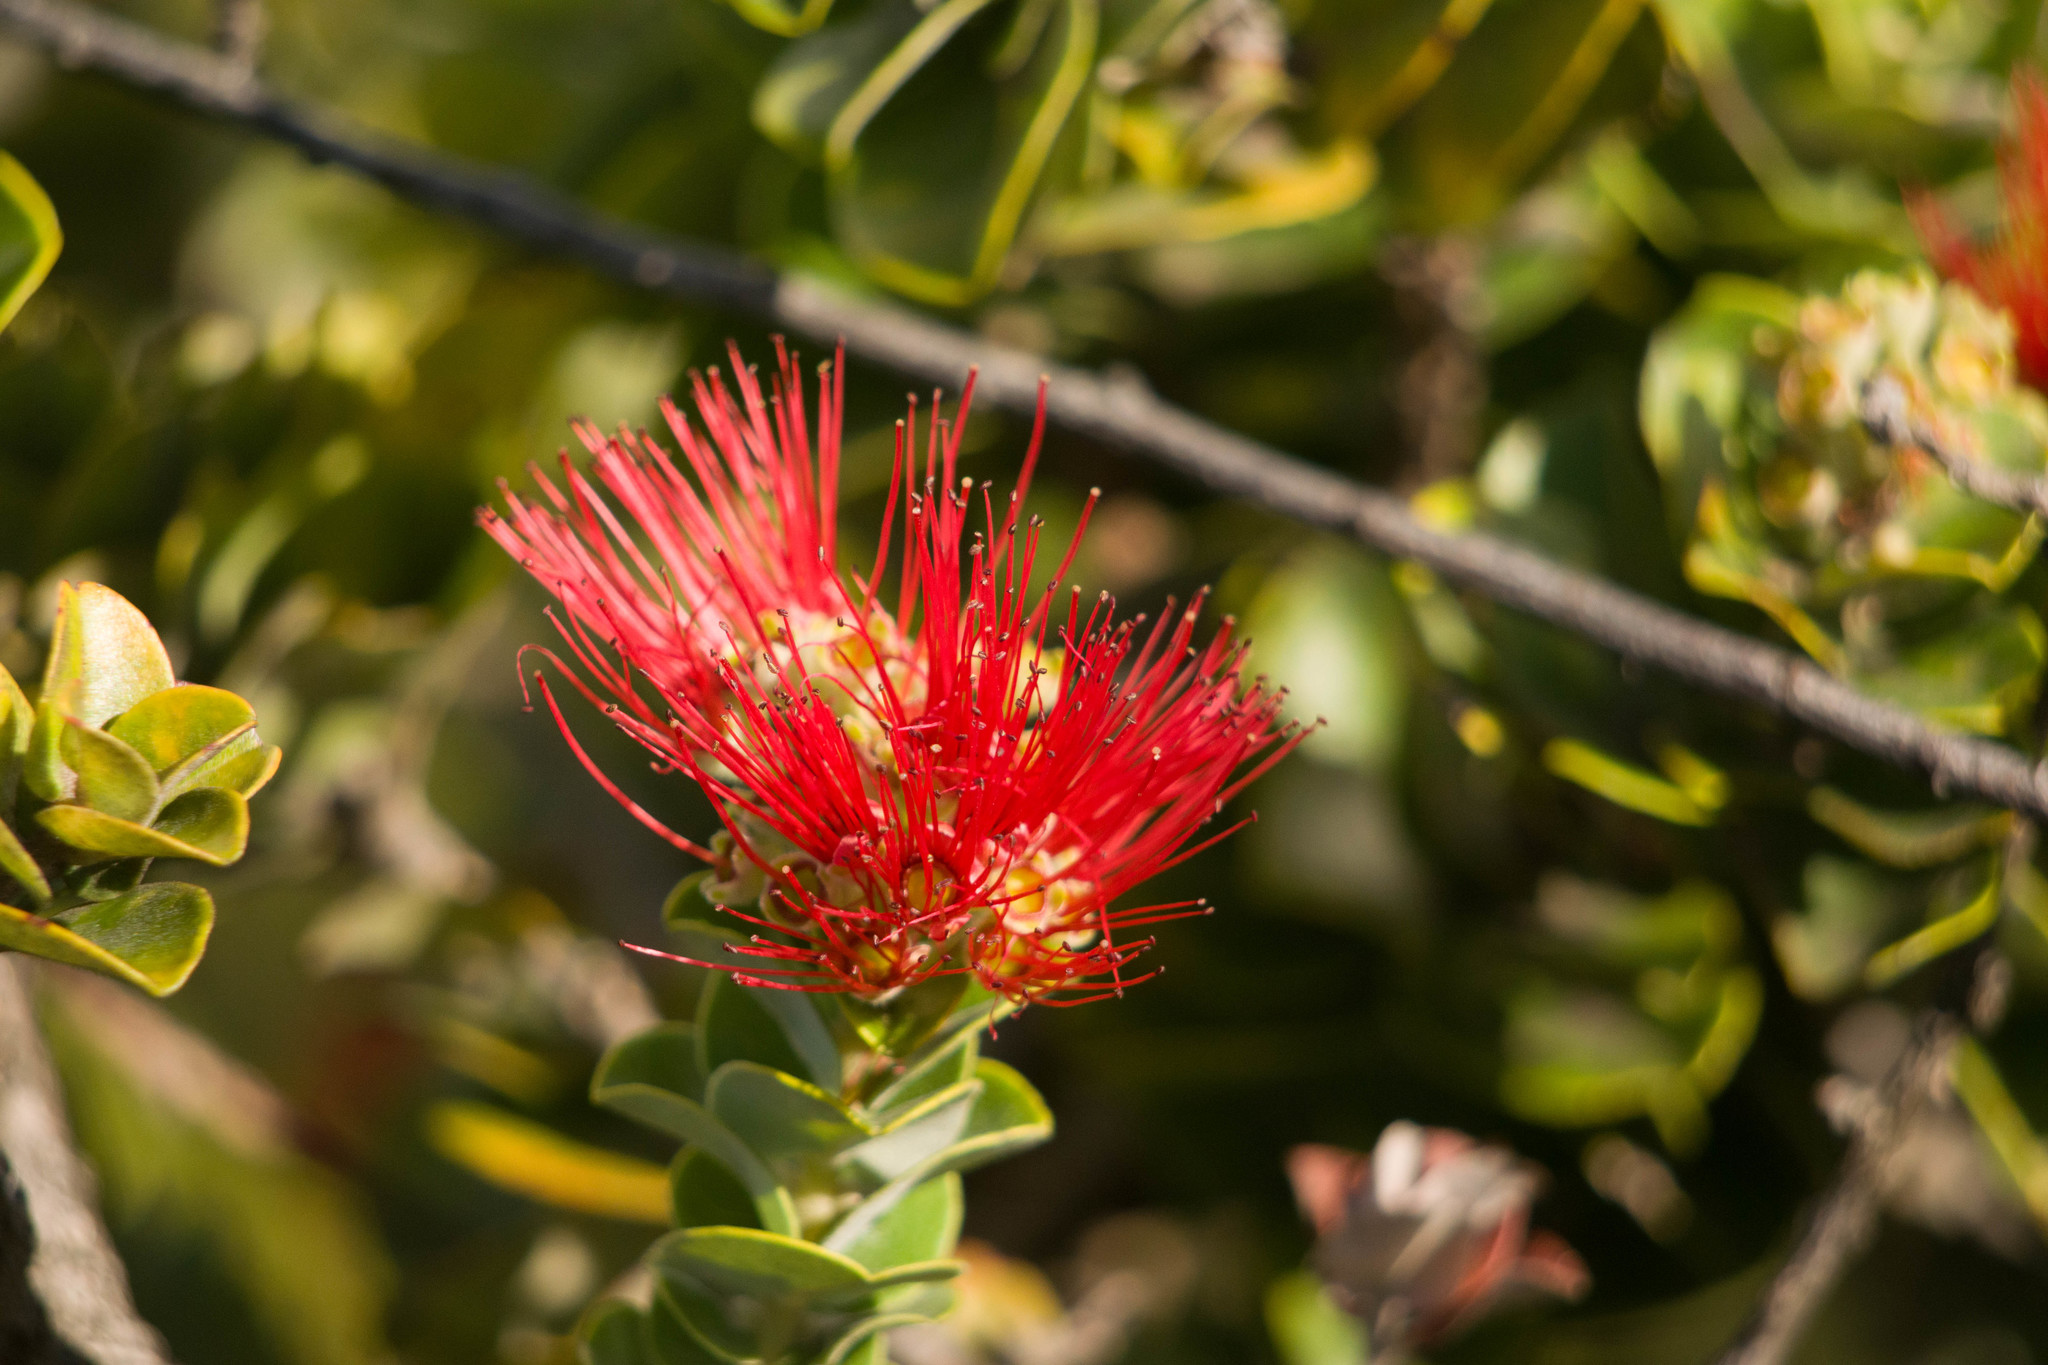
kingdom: Plantae
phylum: Tracheophyta
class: Magnoliopsida
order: Myrtales
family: Myrtaceae
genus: Metrosideros
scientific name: Metrosideros polymorpha
